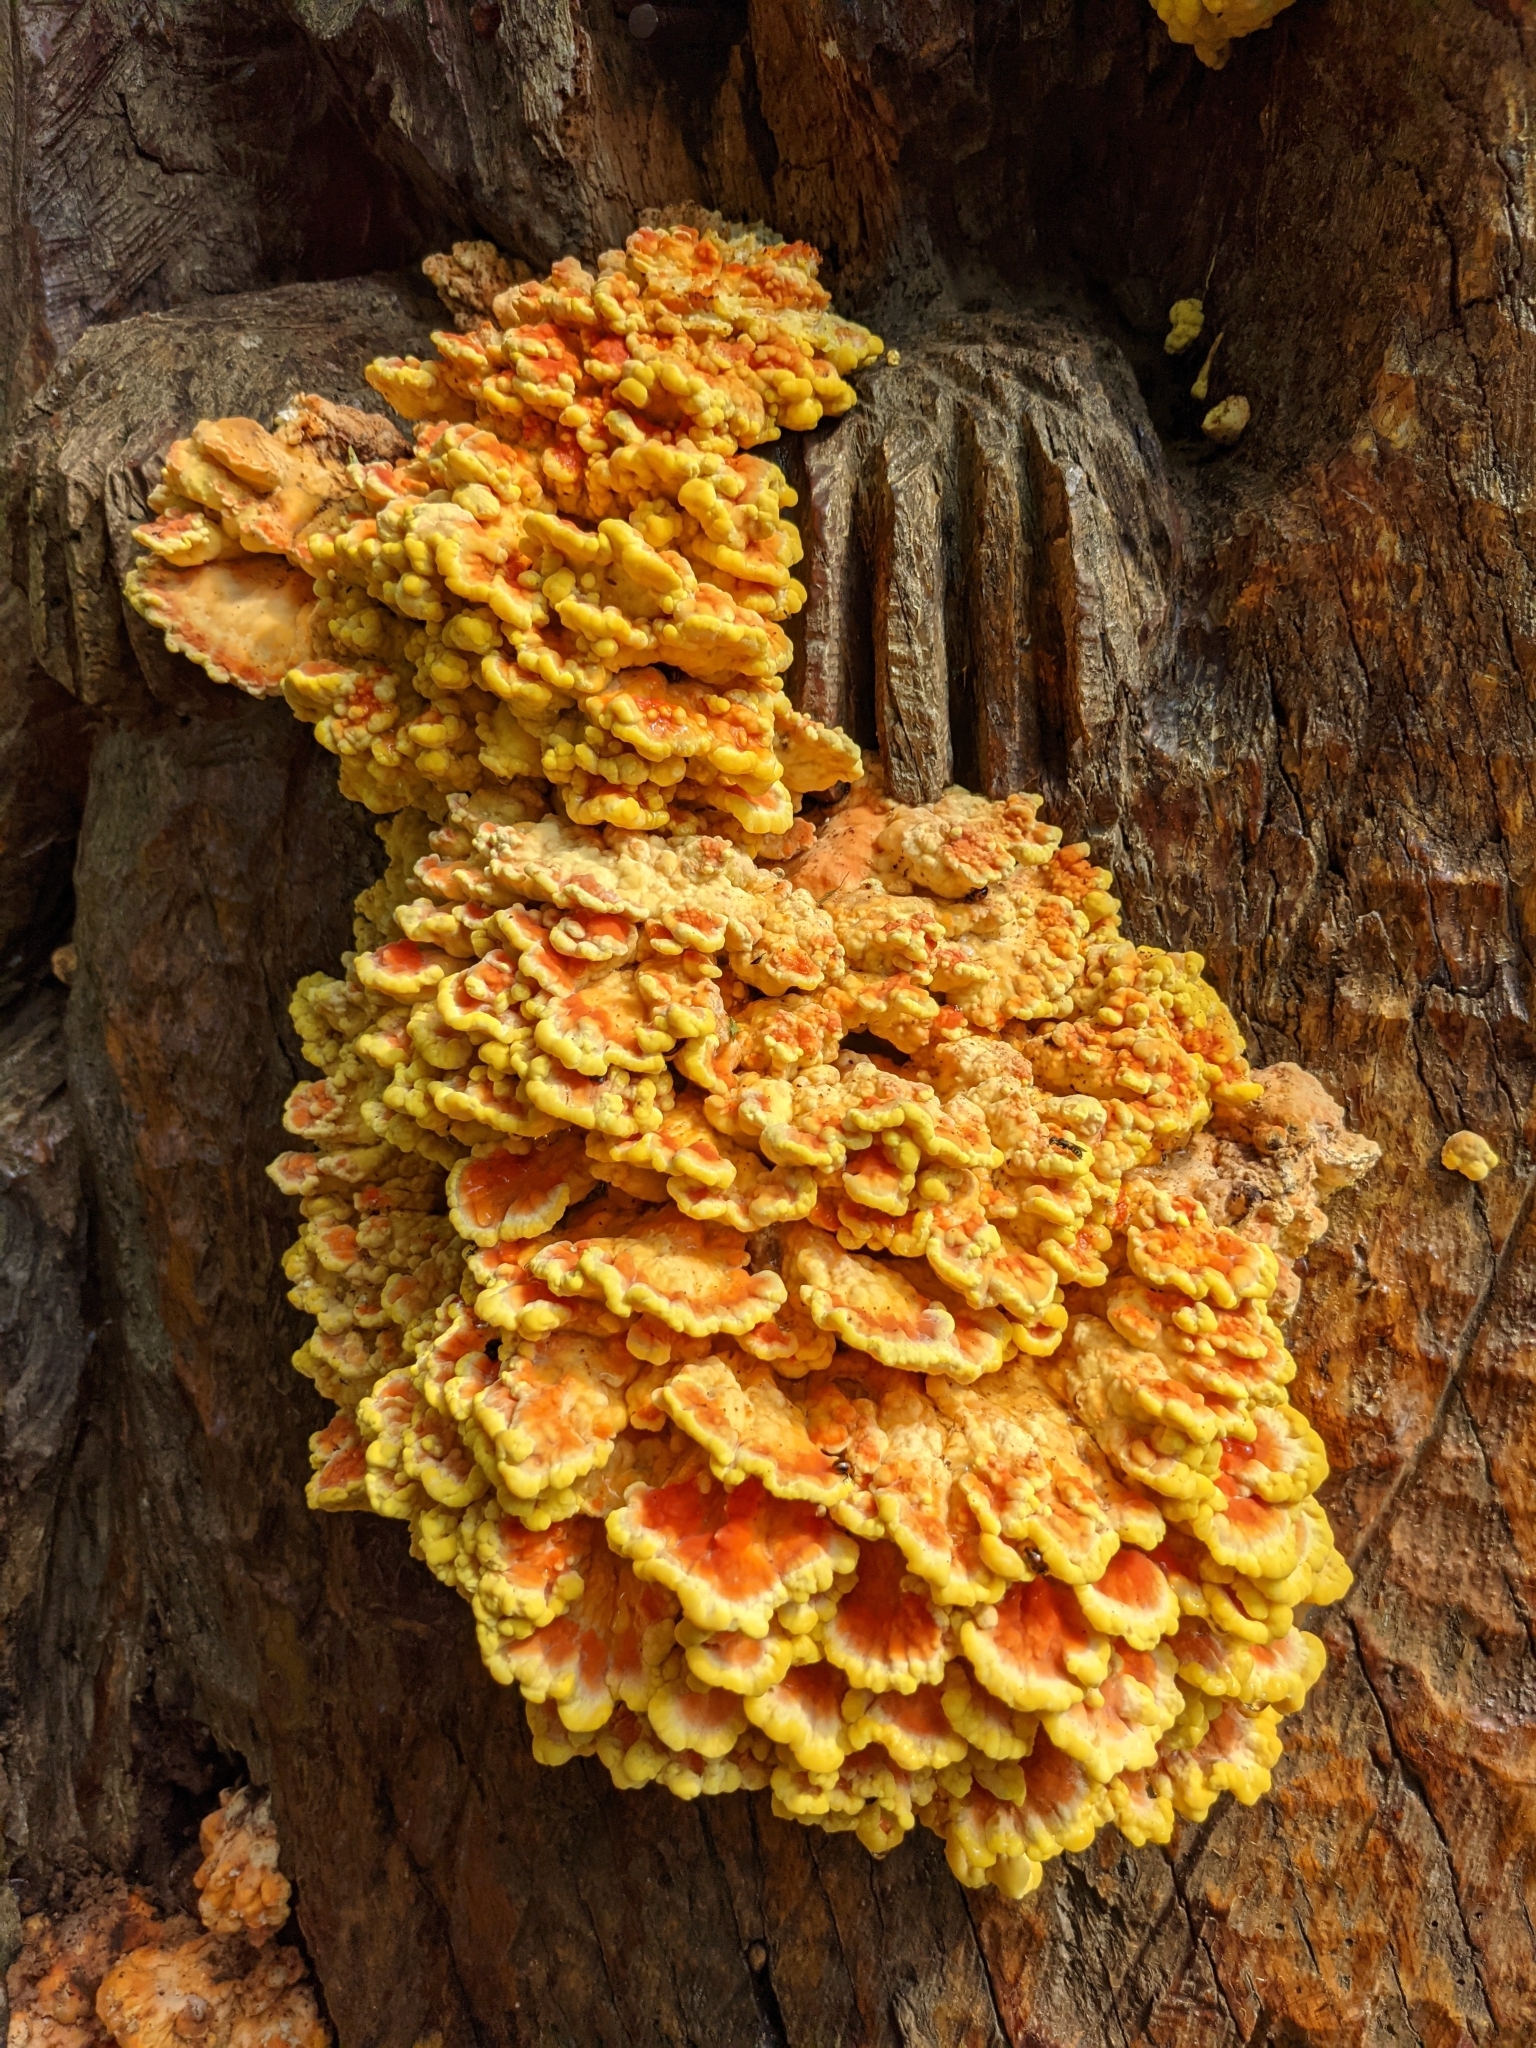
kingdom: Fungi
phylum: Basidiomycota
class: Agaricomycetes
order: Polyporales
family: Laetiporaceae
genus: Laetiporus
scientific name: Laetiporus sulphureus
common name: Chicken of the woods
